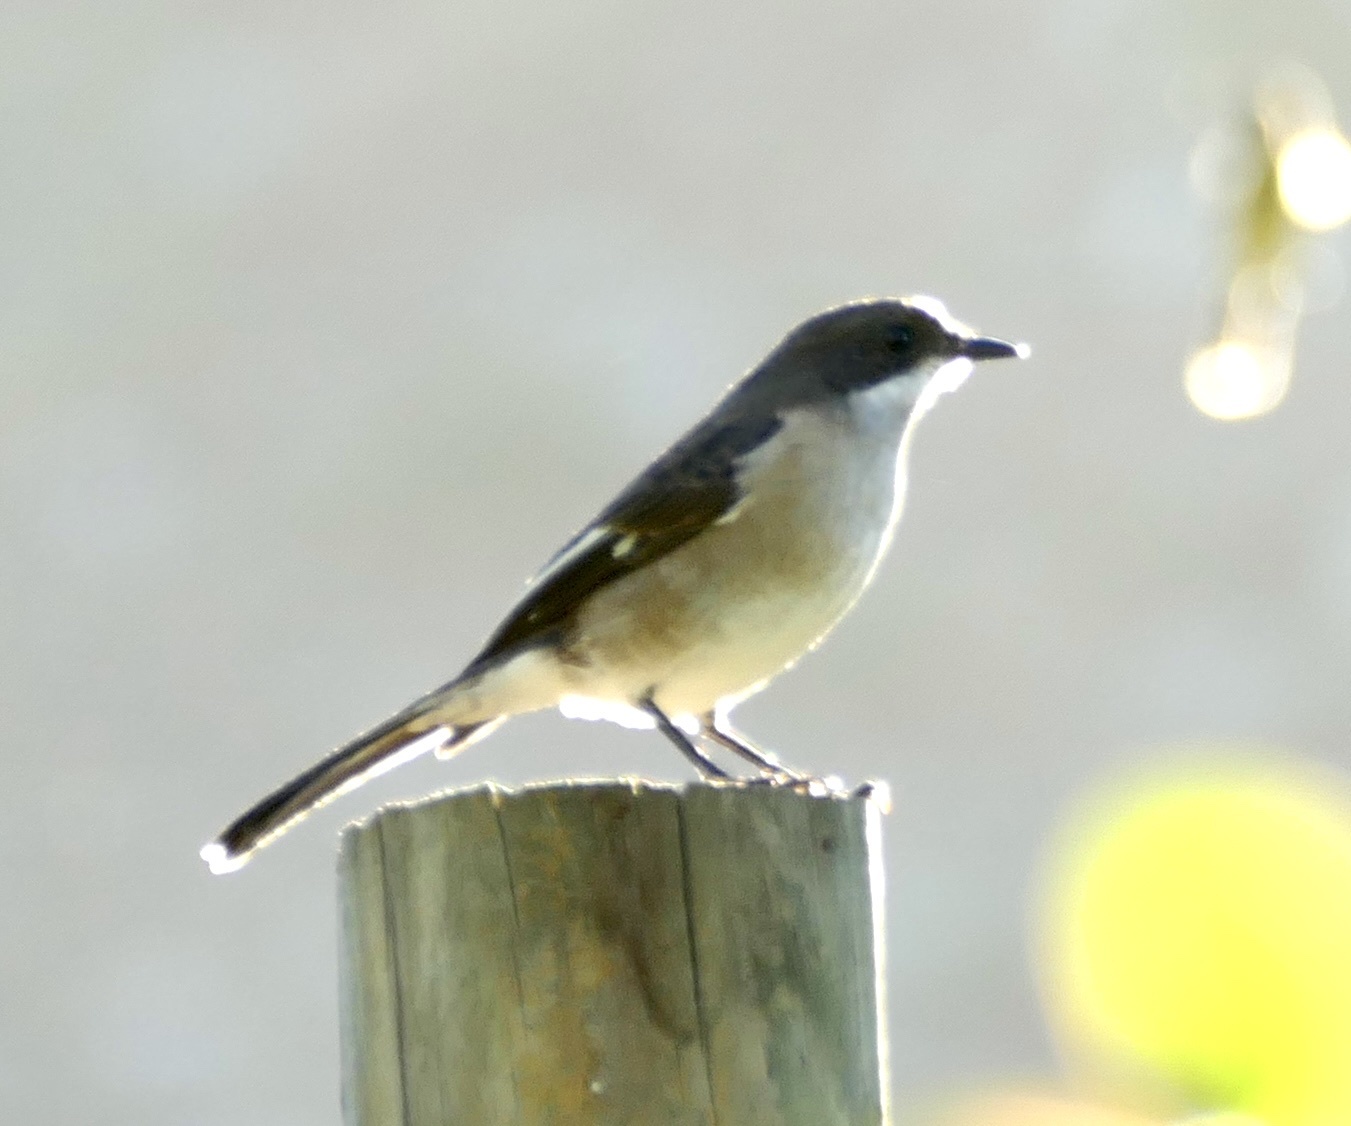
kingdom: Animalia
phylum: Chordata
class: Aves
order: Passeriformes
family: Muscicapidae
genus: Sigelus
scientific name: Sigelus silens
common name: Fiscal flycatcher
